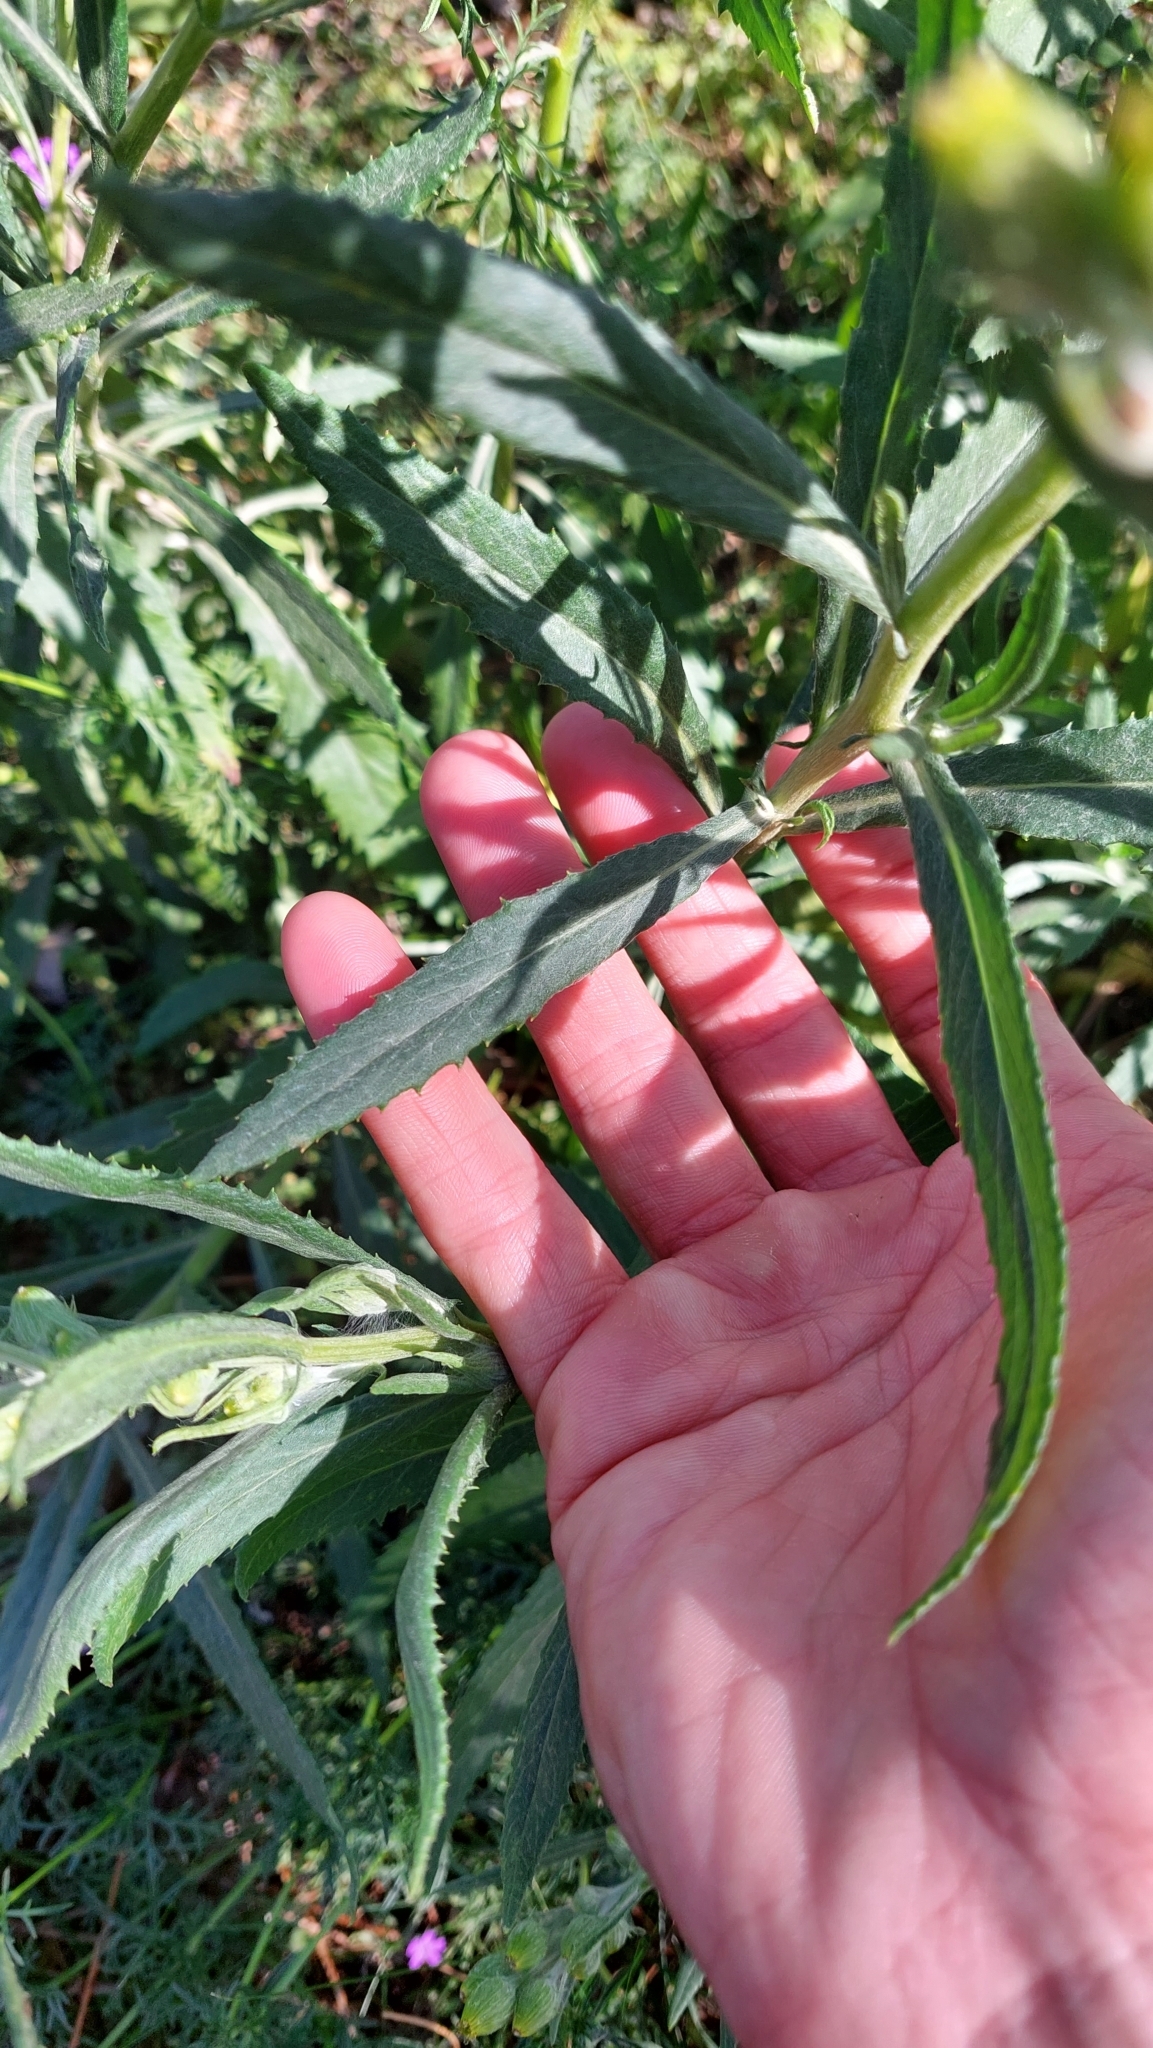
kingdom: Plantae
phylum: Tracheophyta
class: Magnoliopsida
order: Asterales
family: Asteraceae
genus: Senecio
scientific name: Senecio pterophorus
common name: Shoddy ragwort
